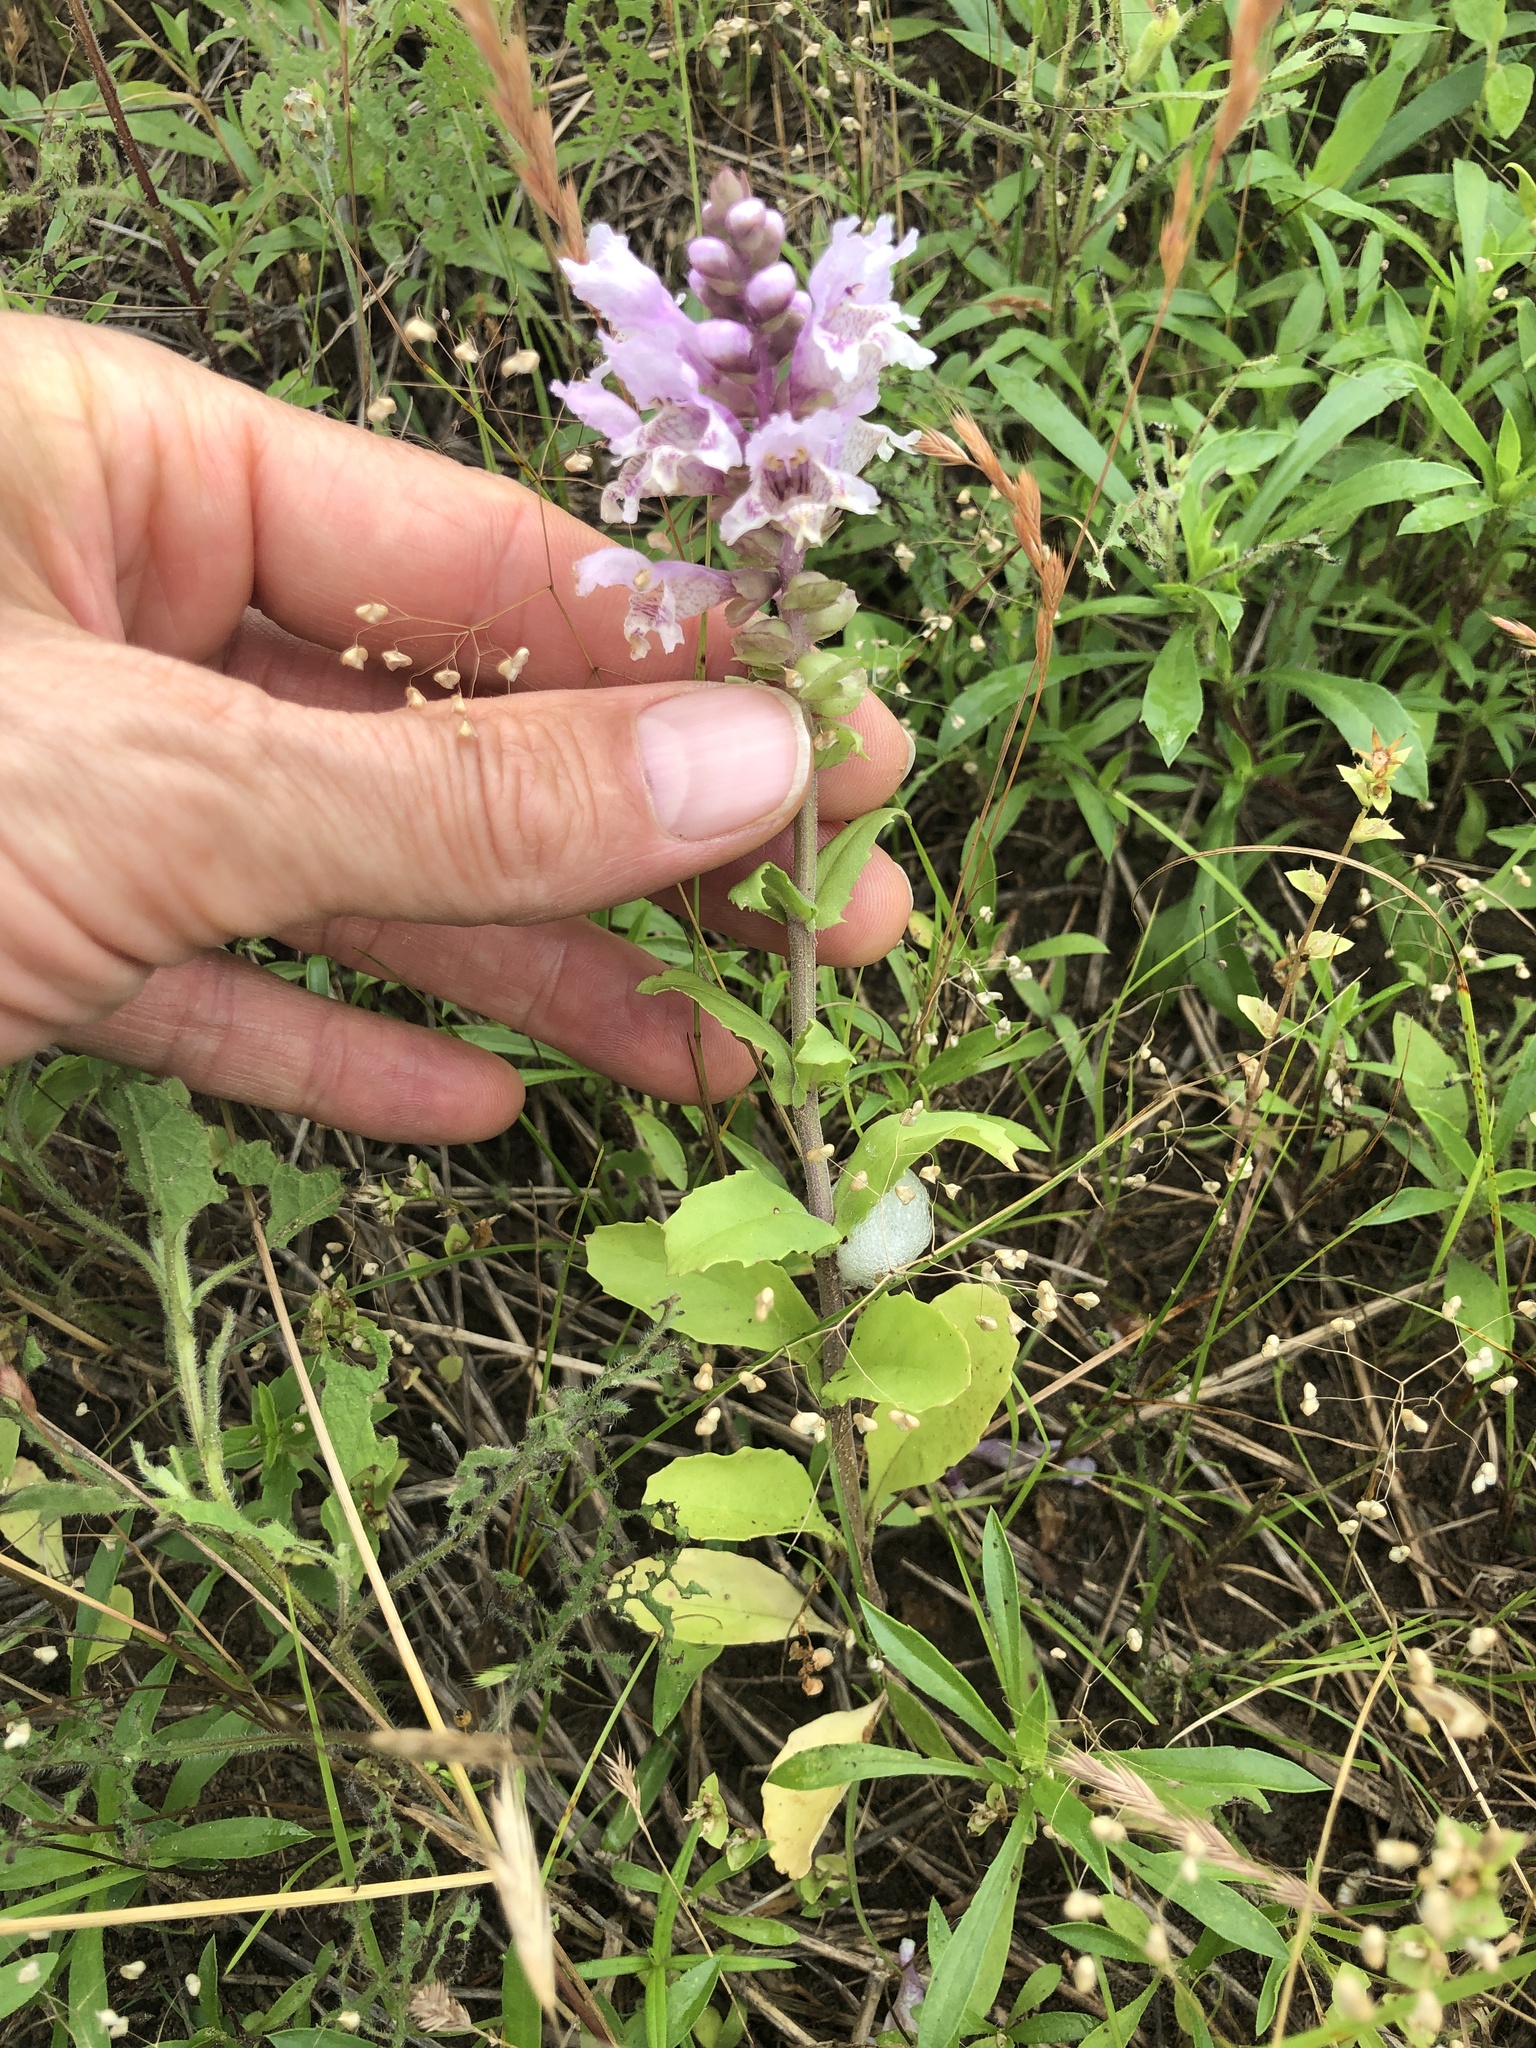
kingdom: Plantae
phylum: Tracheophyta
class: Magnoliopsida
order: Lamiales
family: Lamiaceae
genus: Brazoria
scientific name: Brazoria truncata
